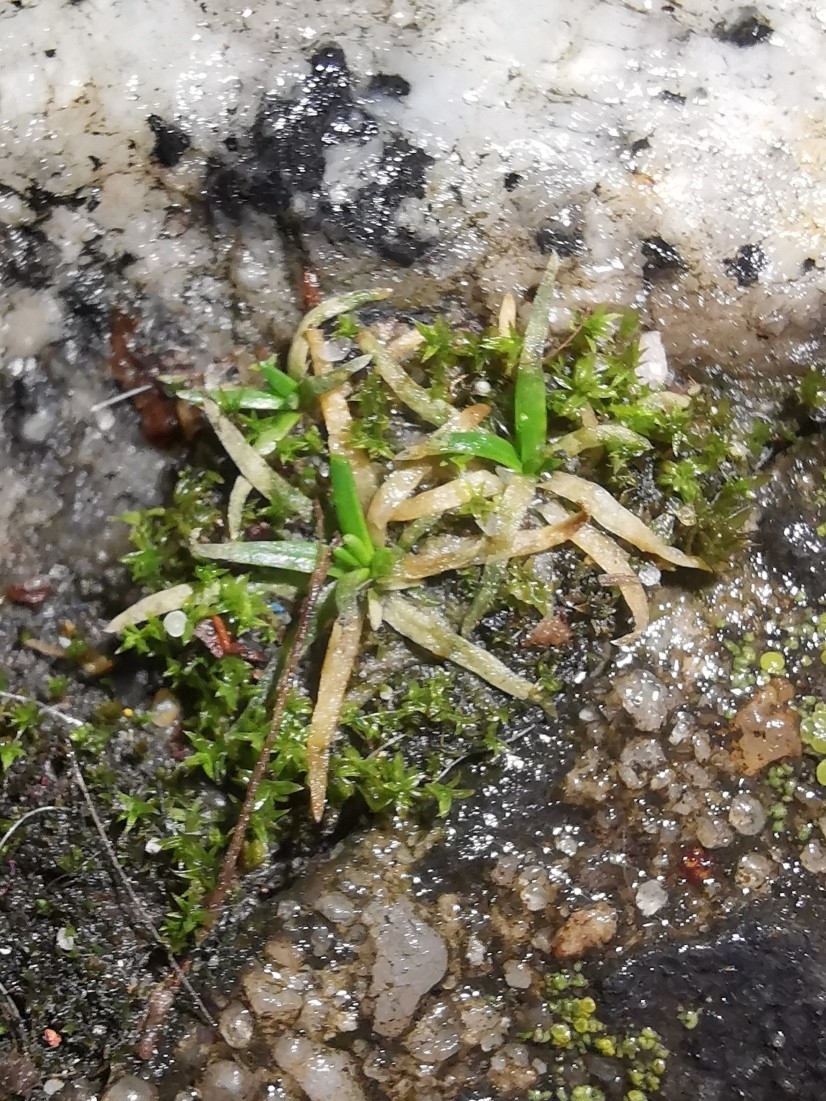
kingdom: Plantae
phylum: Tracheophyta
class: Magnoliopsida
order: Caryophyllales
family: Caryophyllaceae
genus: Sagina
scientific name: Sagina procumbens
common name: Procumbent pearlwort
